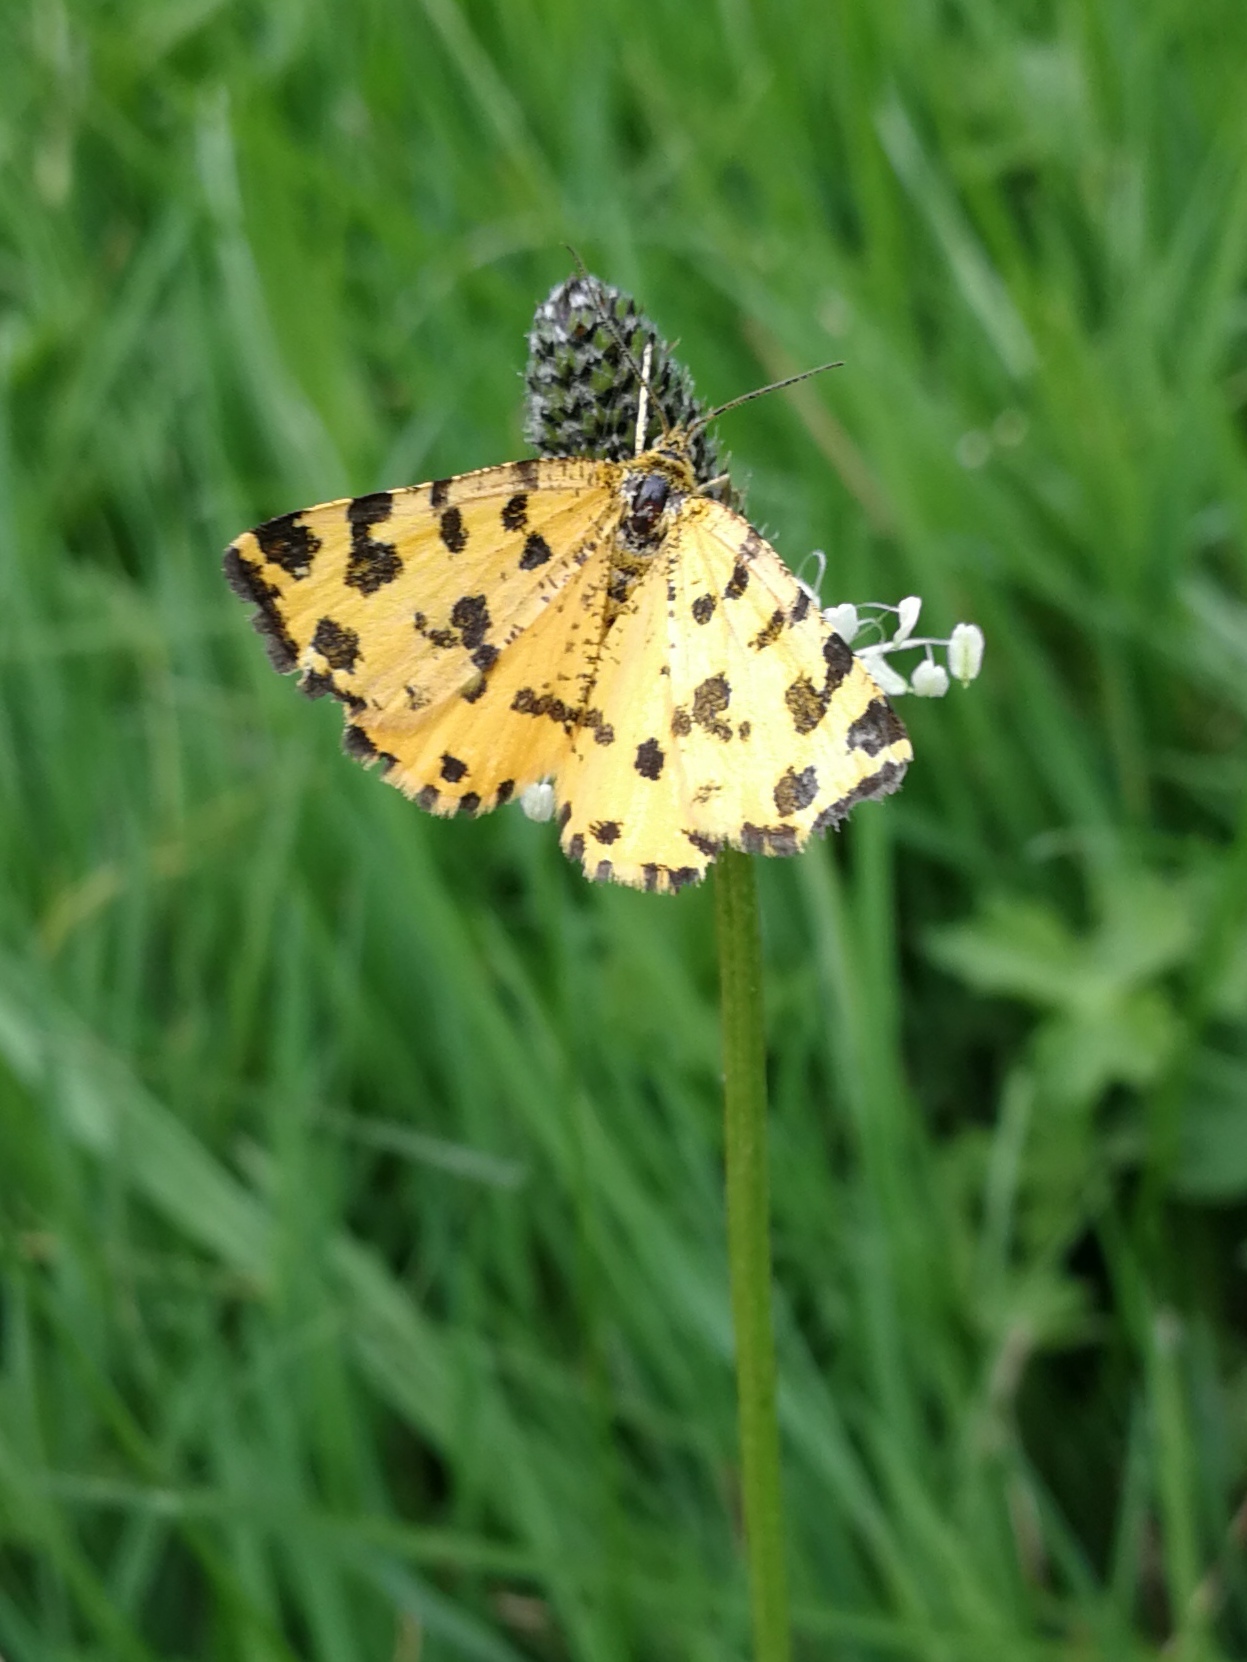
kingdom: Animalia
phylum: Arthropoda
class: Insecta
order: Lepidoptera
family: Geometridae
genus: Pseudopanthera
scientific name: Pseudopanthera macularia
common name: Speckled yellow
